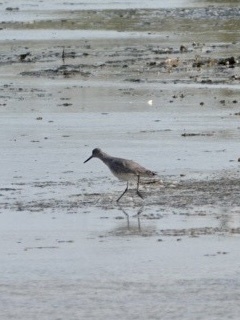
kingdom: Animalia
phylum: Chordata
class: Aves
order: Charadriiformes
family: Scolopacidae
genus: Tringa
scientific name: Tringa semipalmata
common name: Willet
